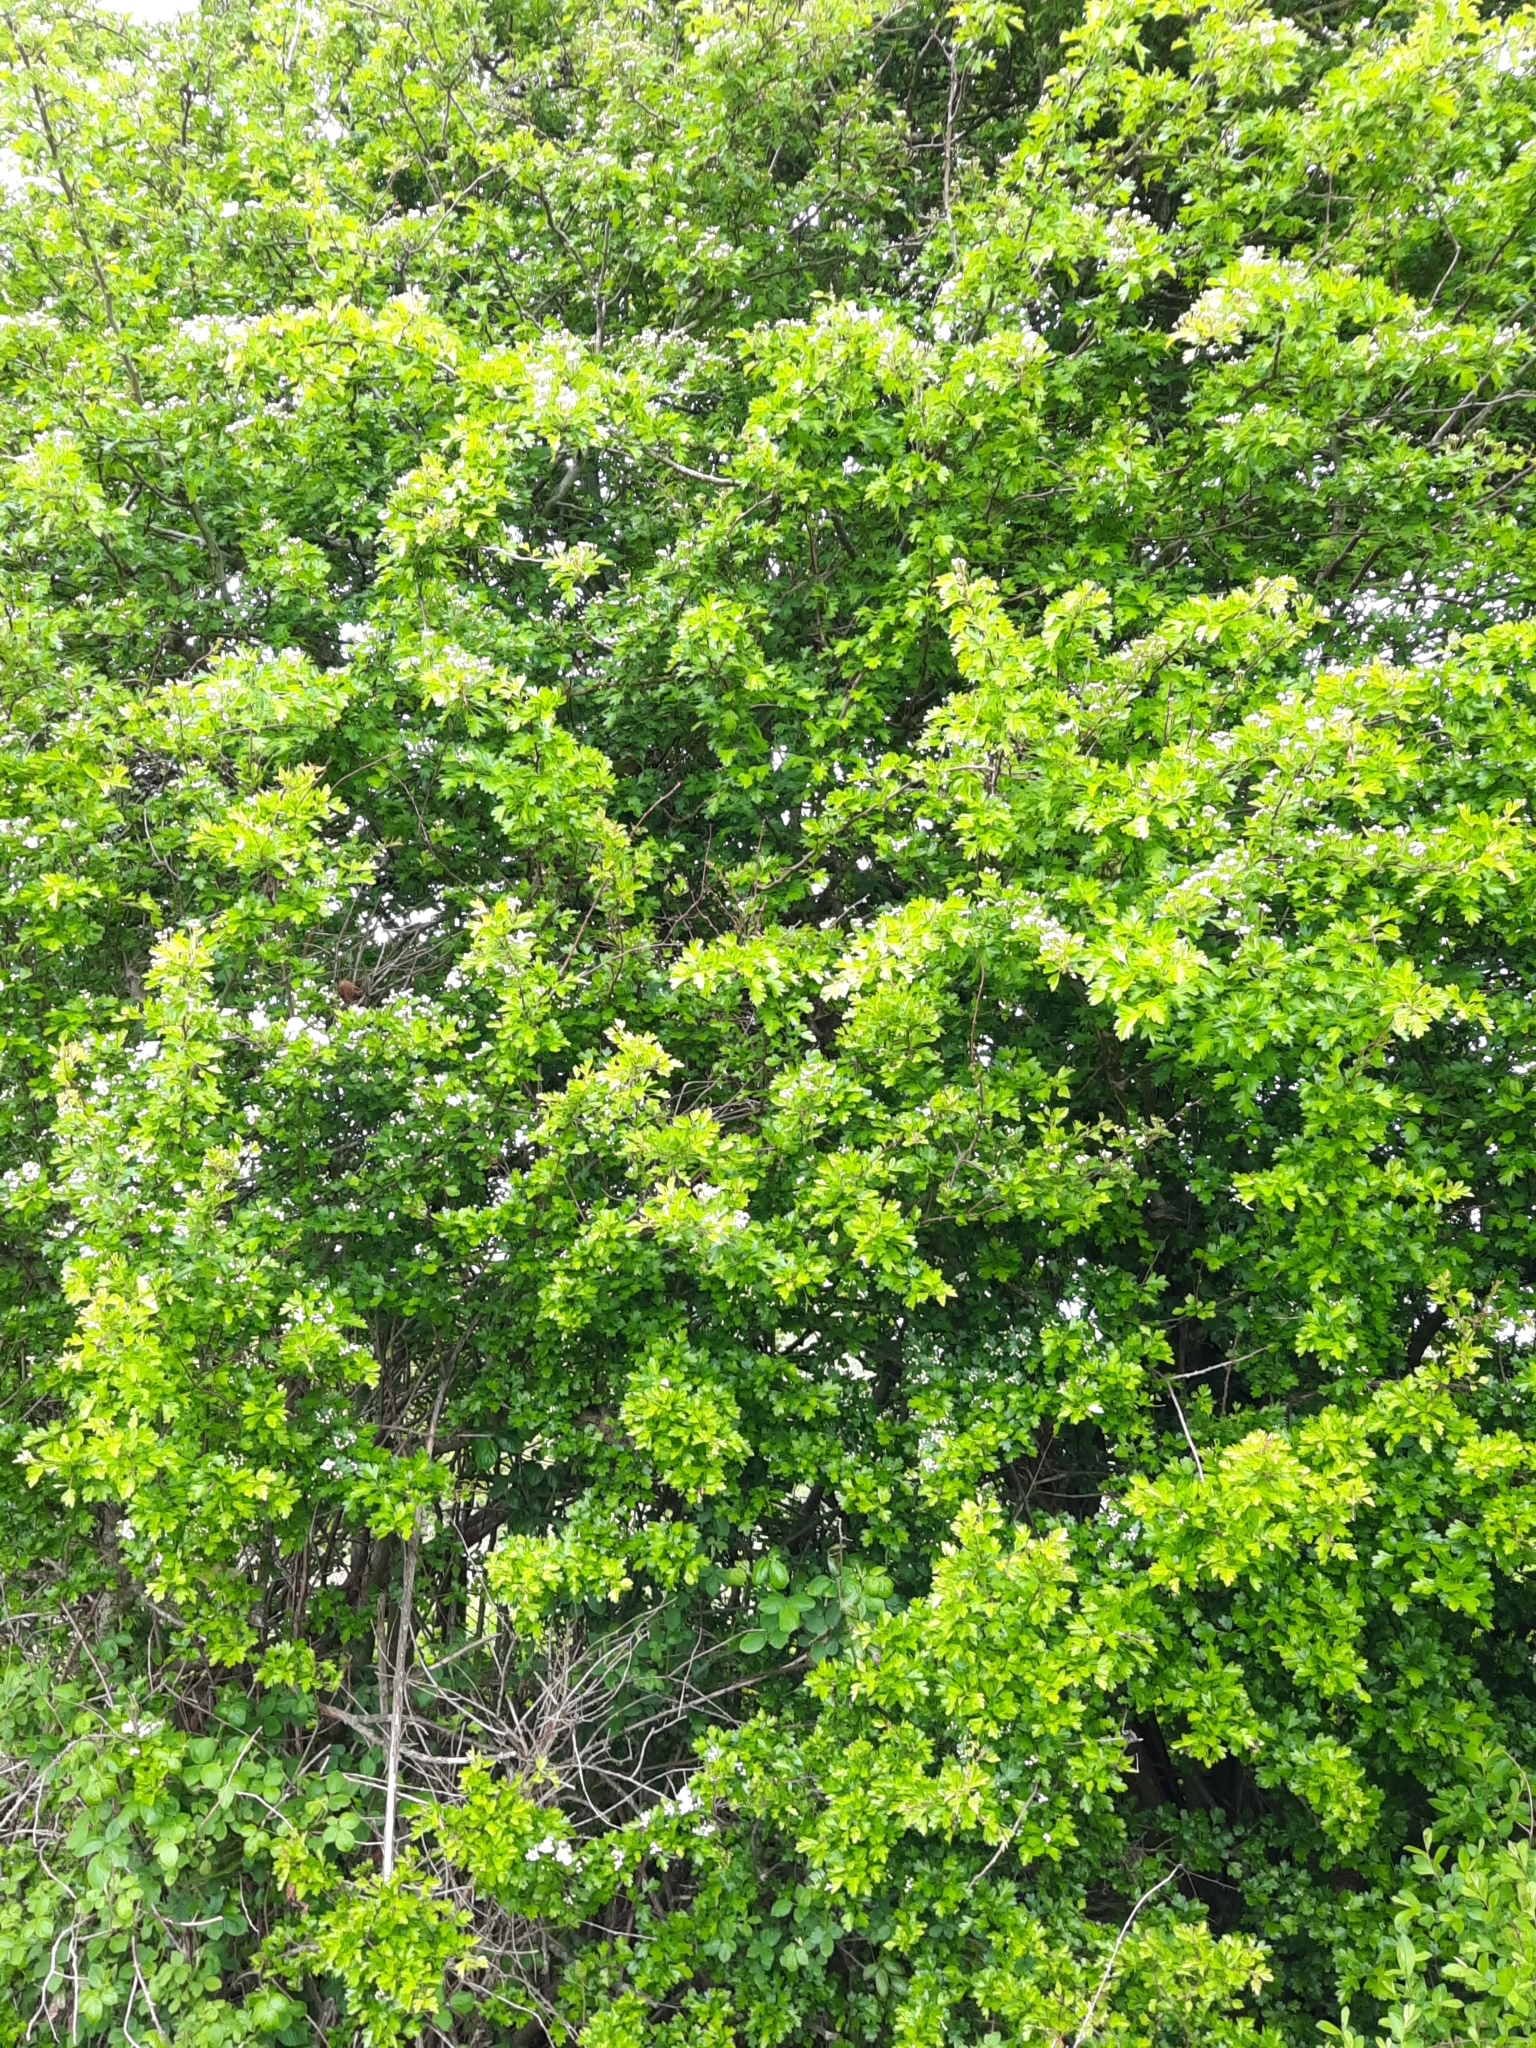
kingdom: Plantae
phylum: Tracheophyta
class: Magnoliopsida
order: Rosales
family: Rosaceae
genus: Crataegus
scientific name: Crataegus monogyna
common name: Hawthorn
